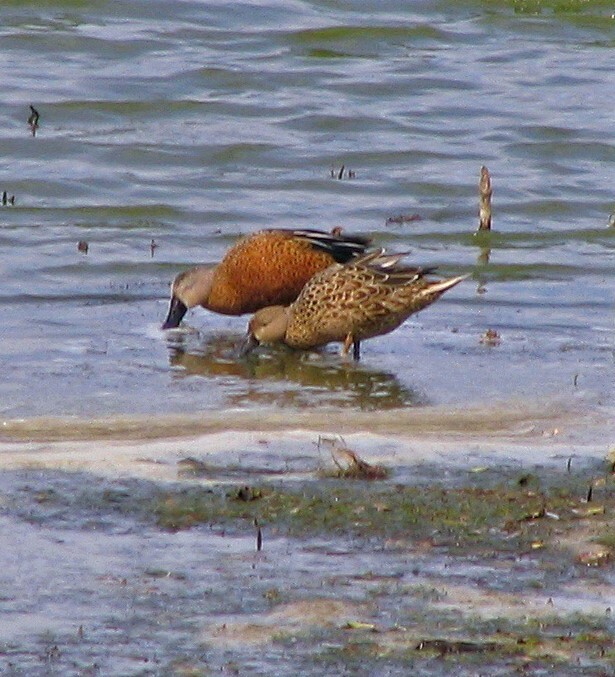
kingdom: Animalia
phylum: Chordata
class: Aves
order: Anseriformes
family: Anatidae
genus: Spatula
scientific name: Spatula platalea
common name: Red shoveler
